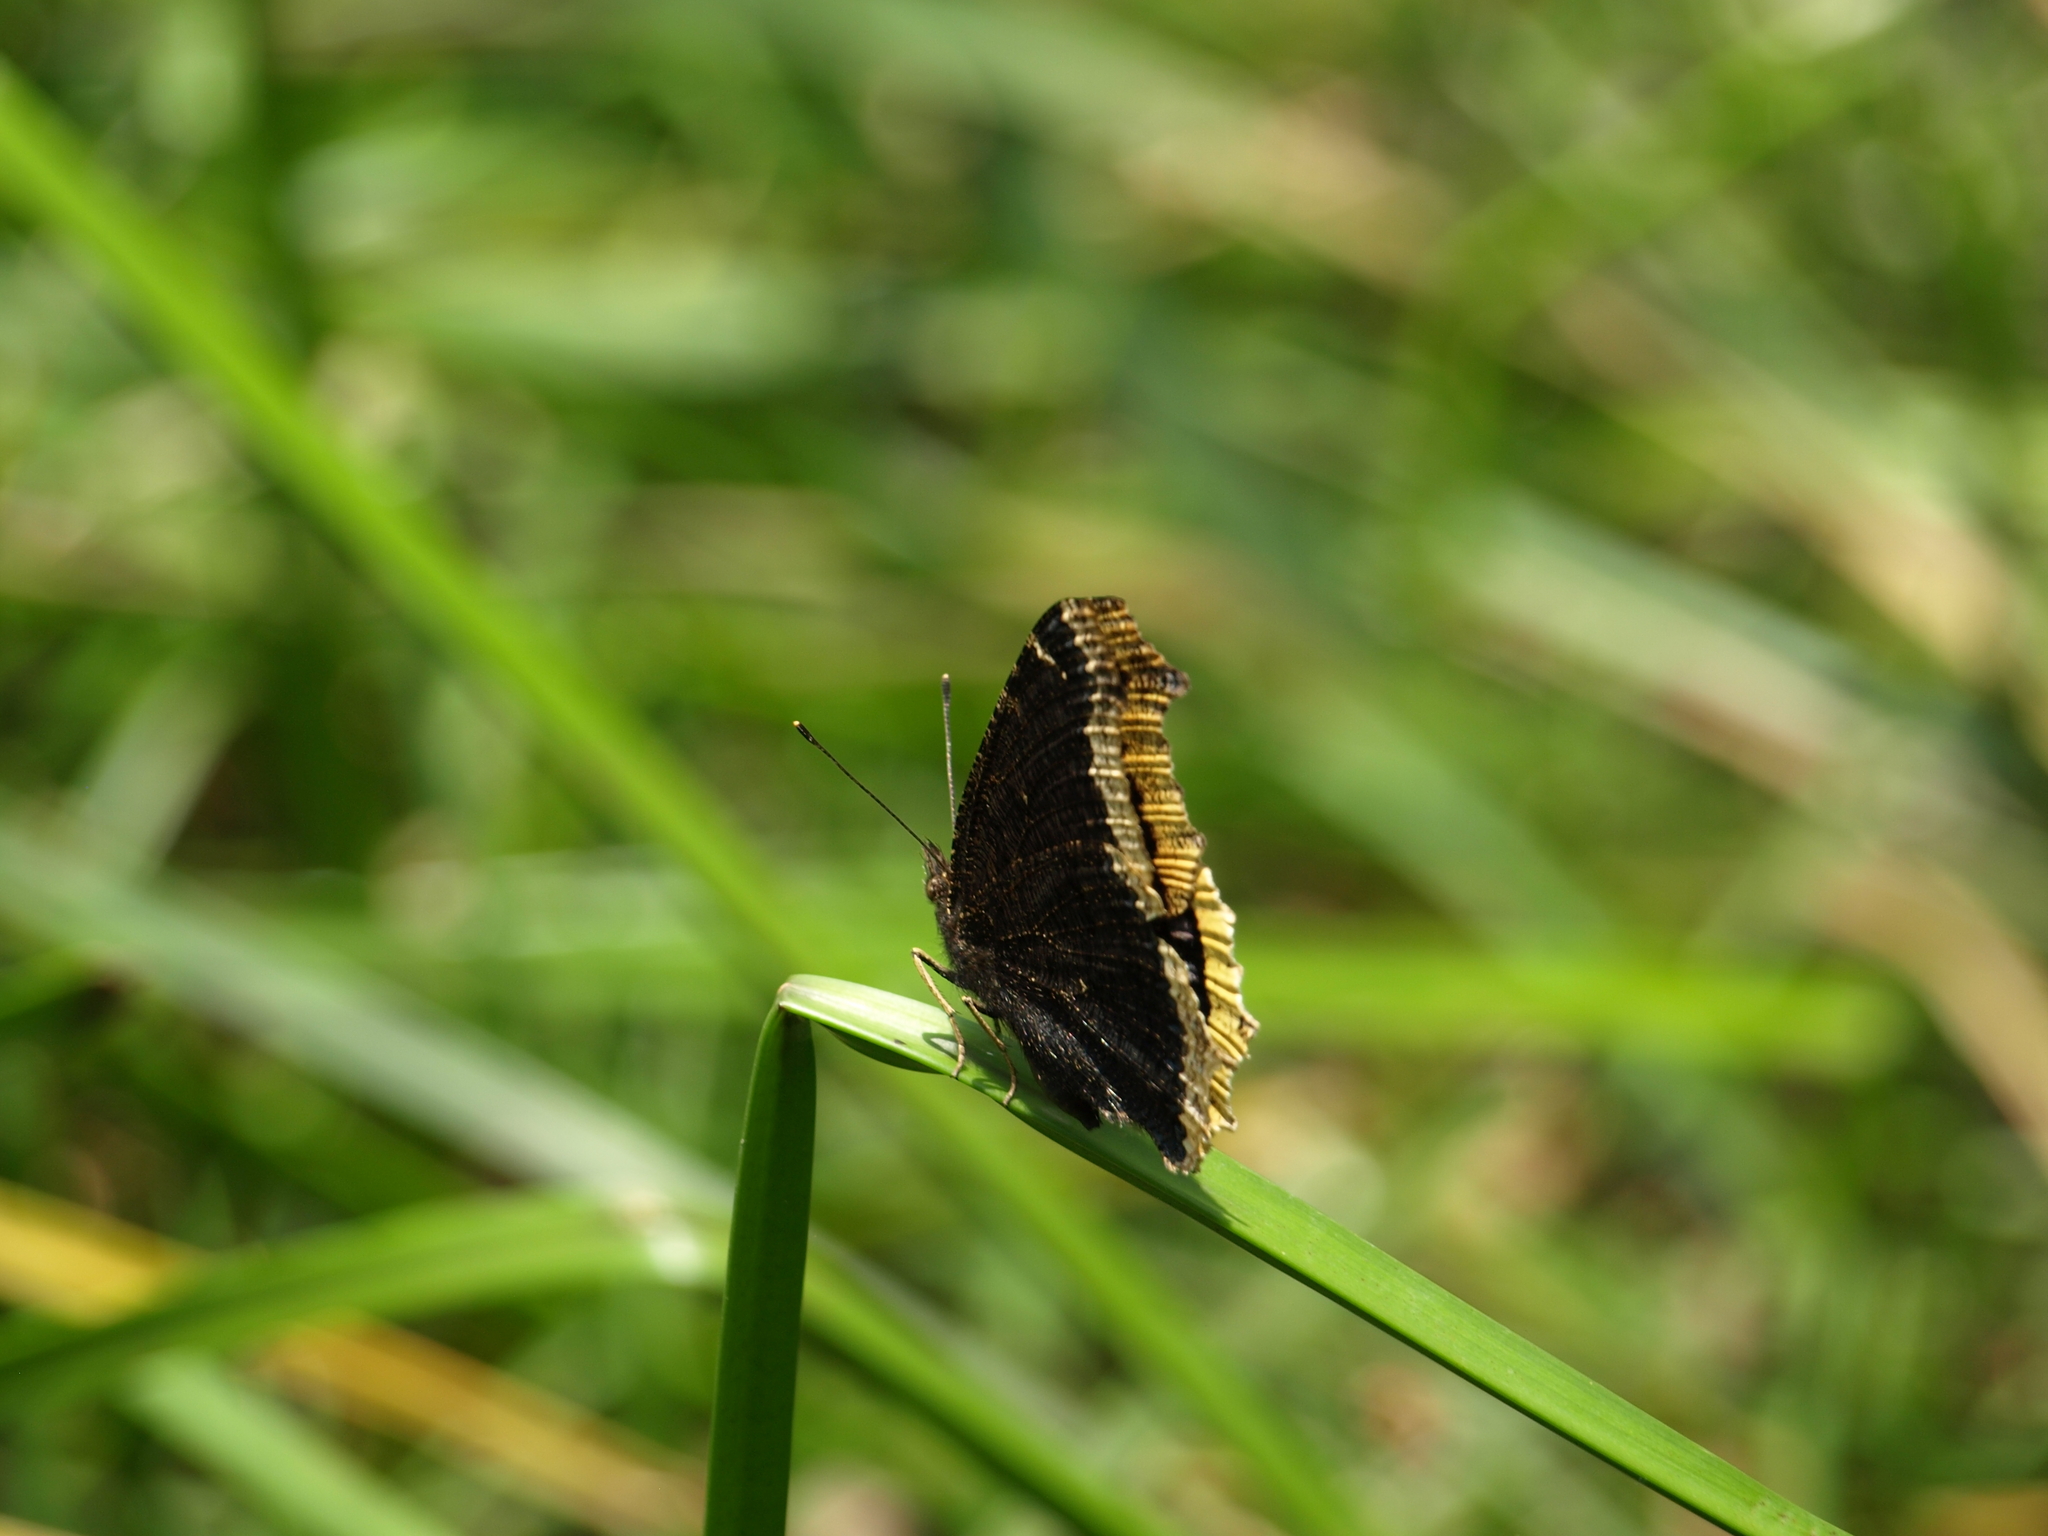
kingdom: Animalia
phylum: Arthropoda
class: Insecta
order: Lepidoptera
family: Nymphalidae
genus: Nymphalis
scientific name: Nymphalis antiopa
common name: Camberwell beauty
